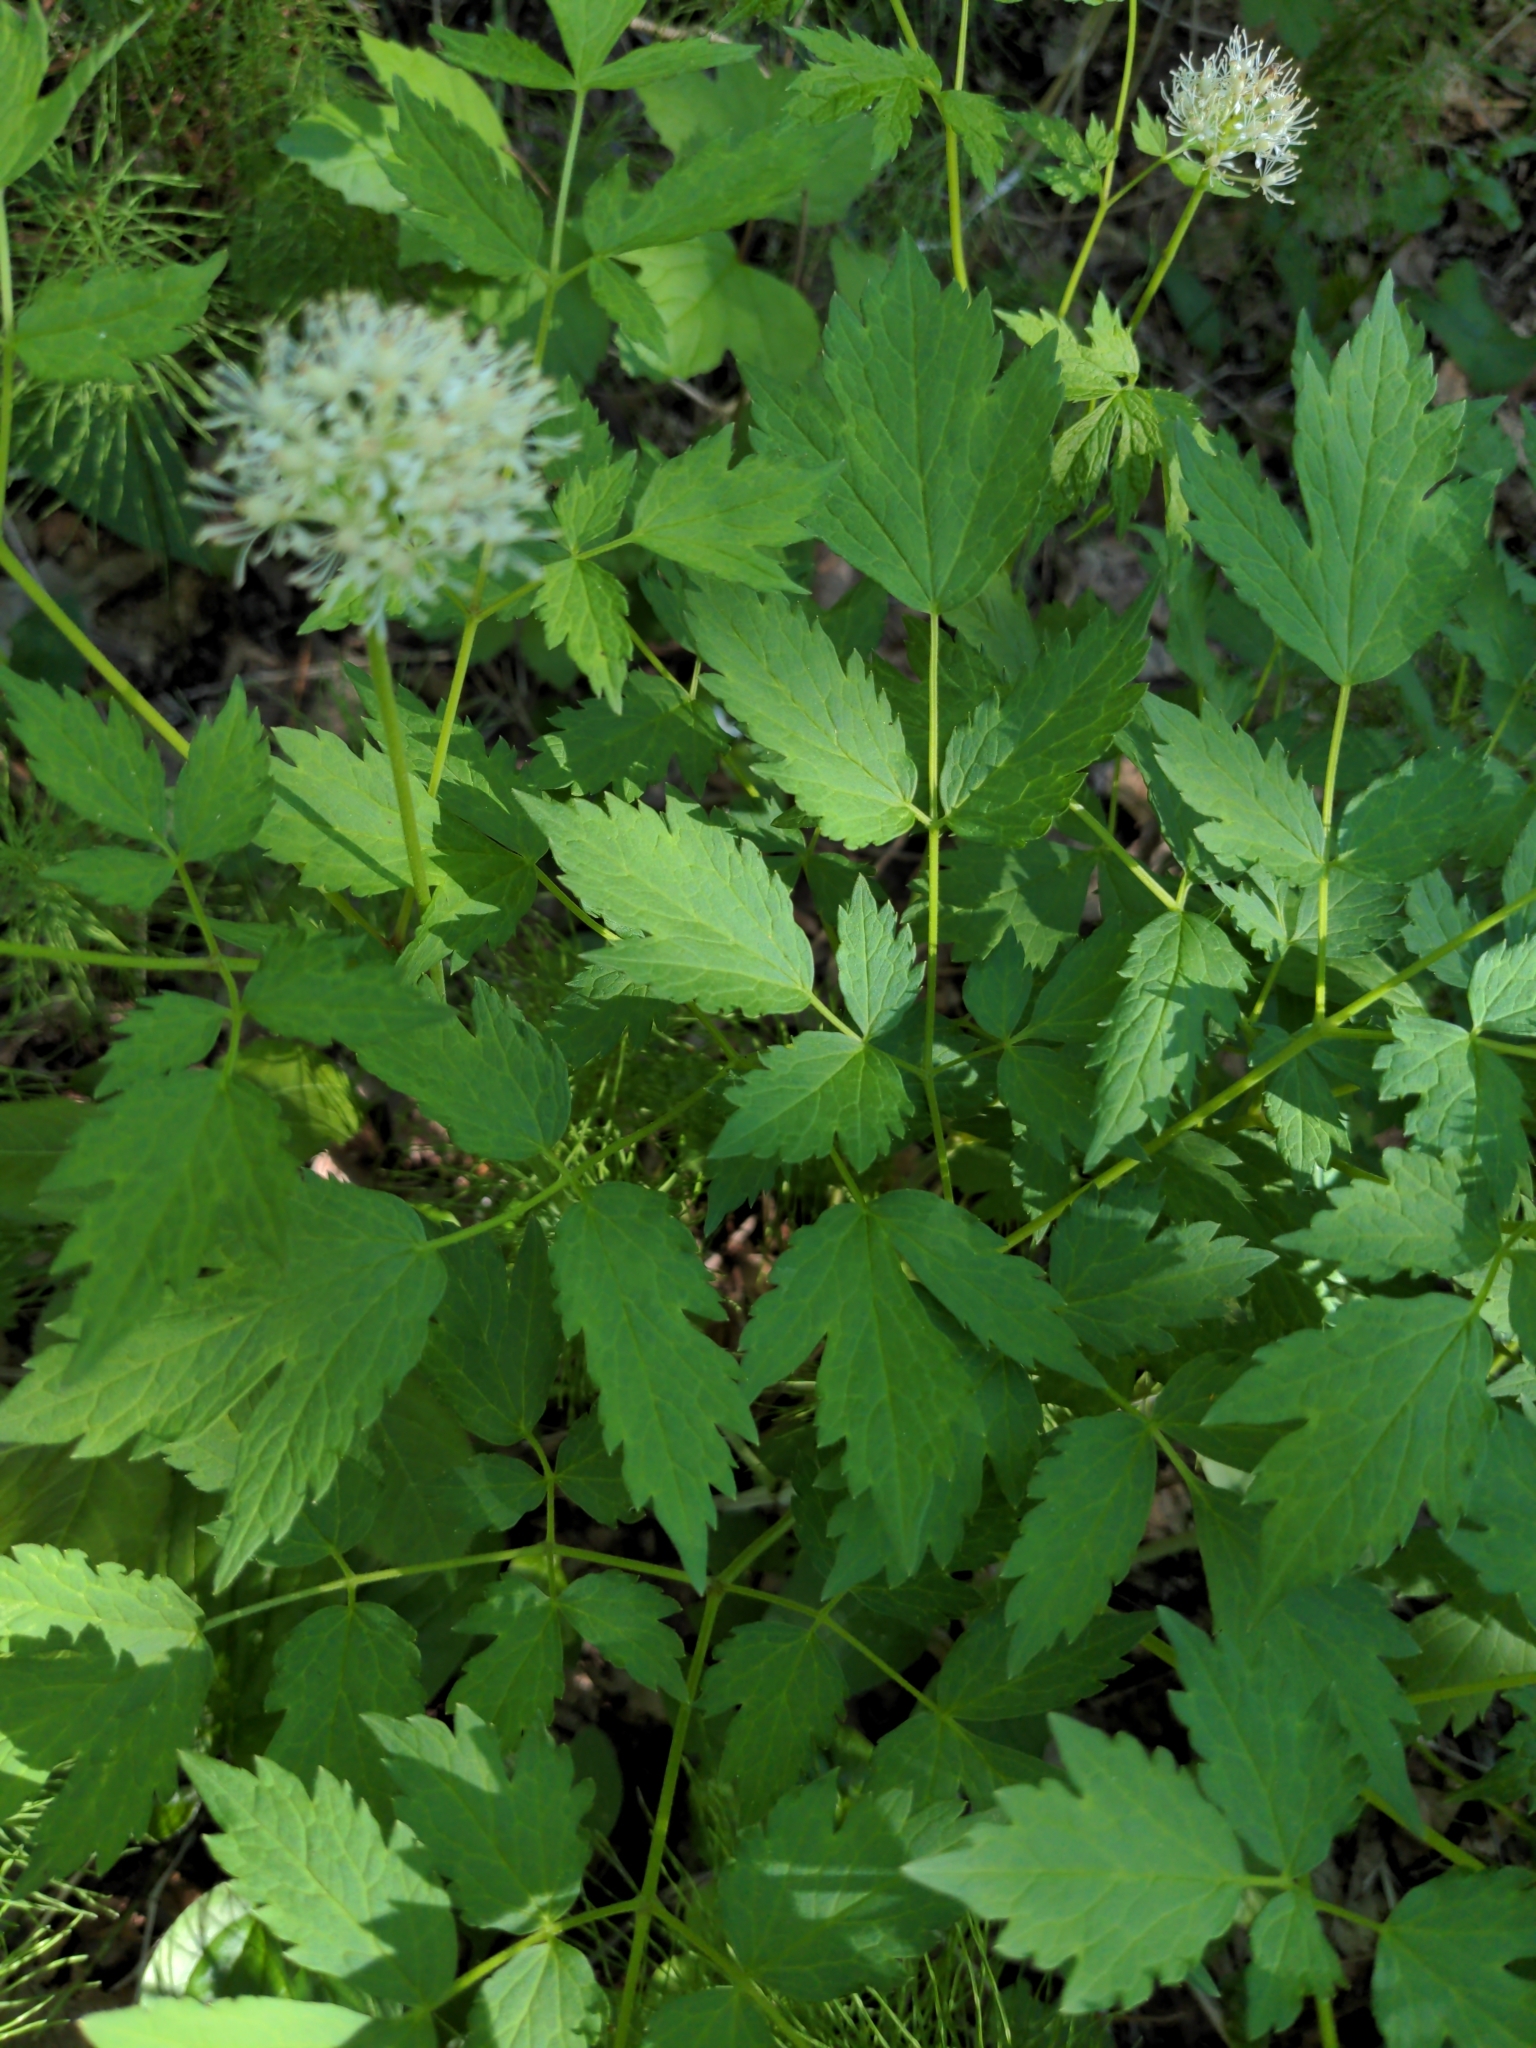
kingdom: Plantae
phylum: Tracheophyta
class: Magnoliopsida
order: Ranunculales
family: Ranunculaceae
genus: Actaea
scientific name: Actaea rubra
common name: Red baneberry
